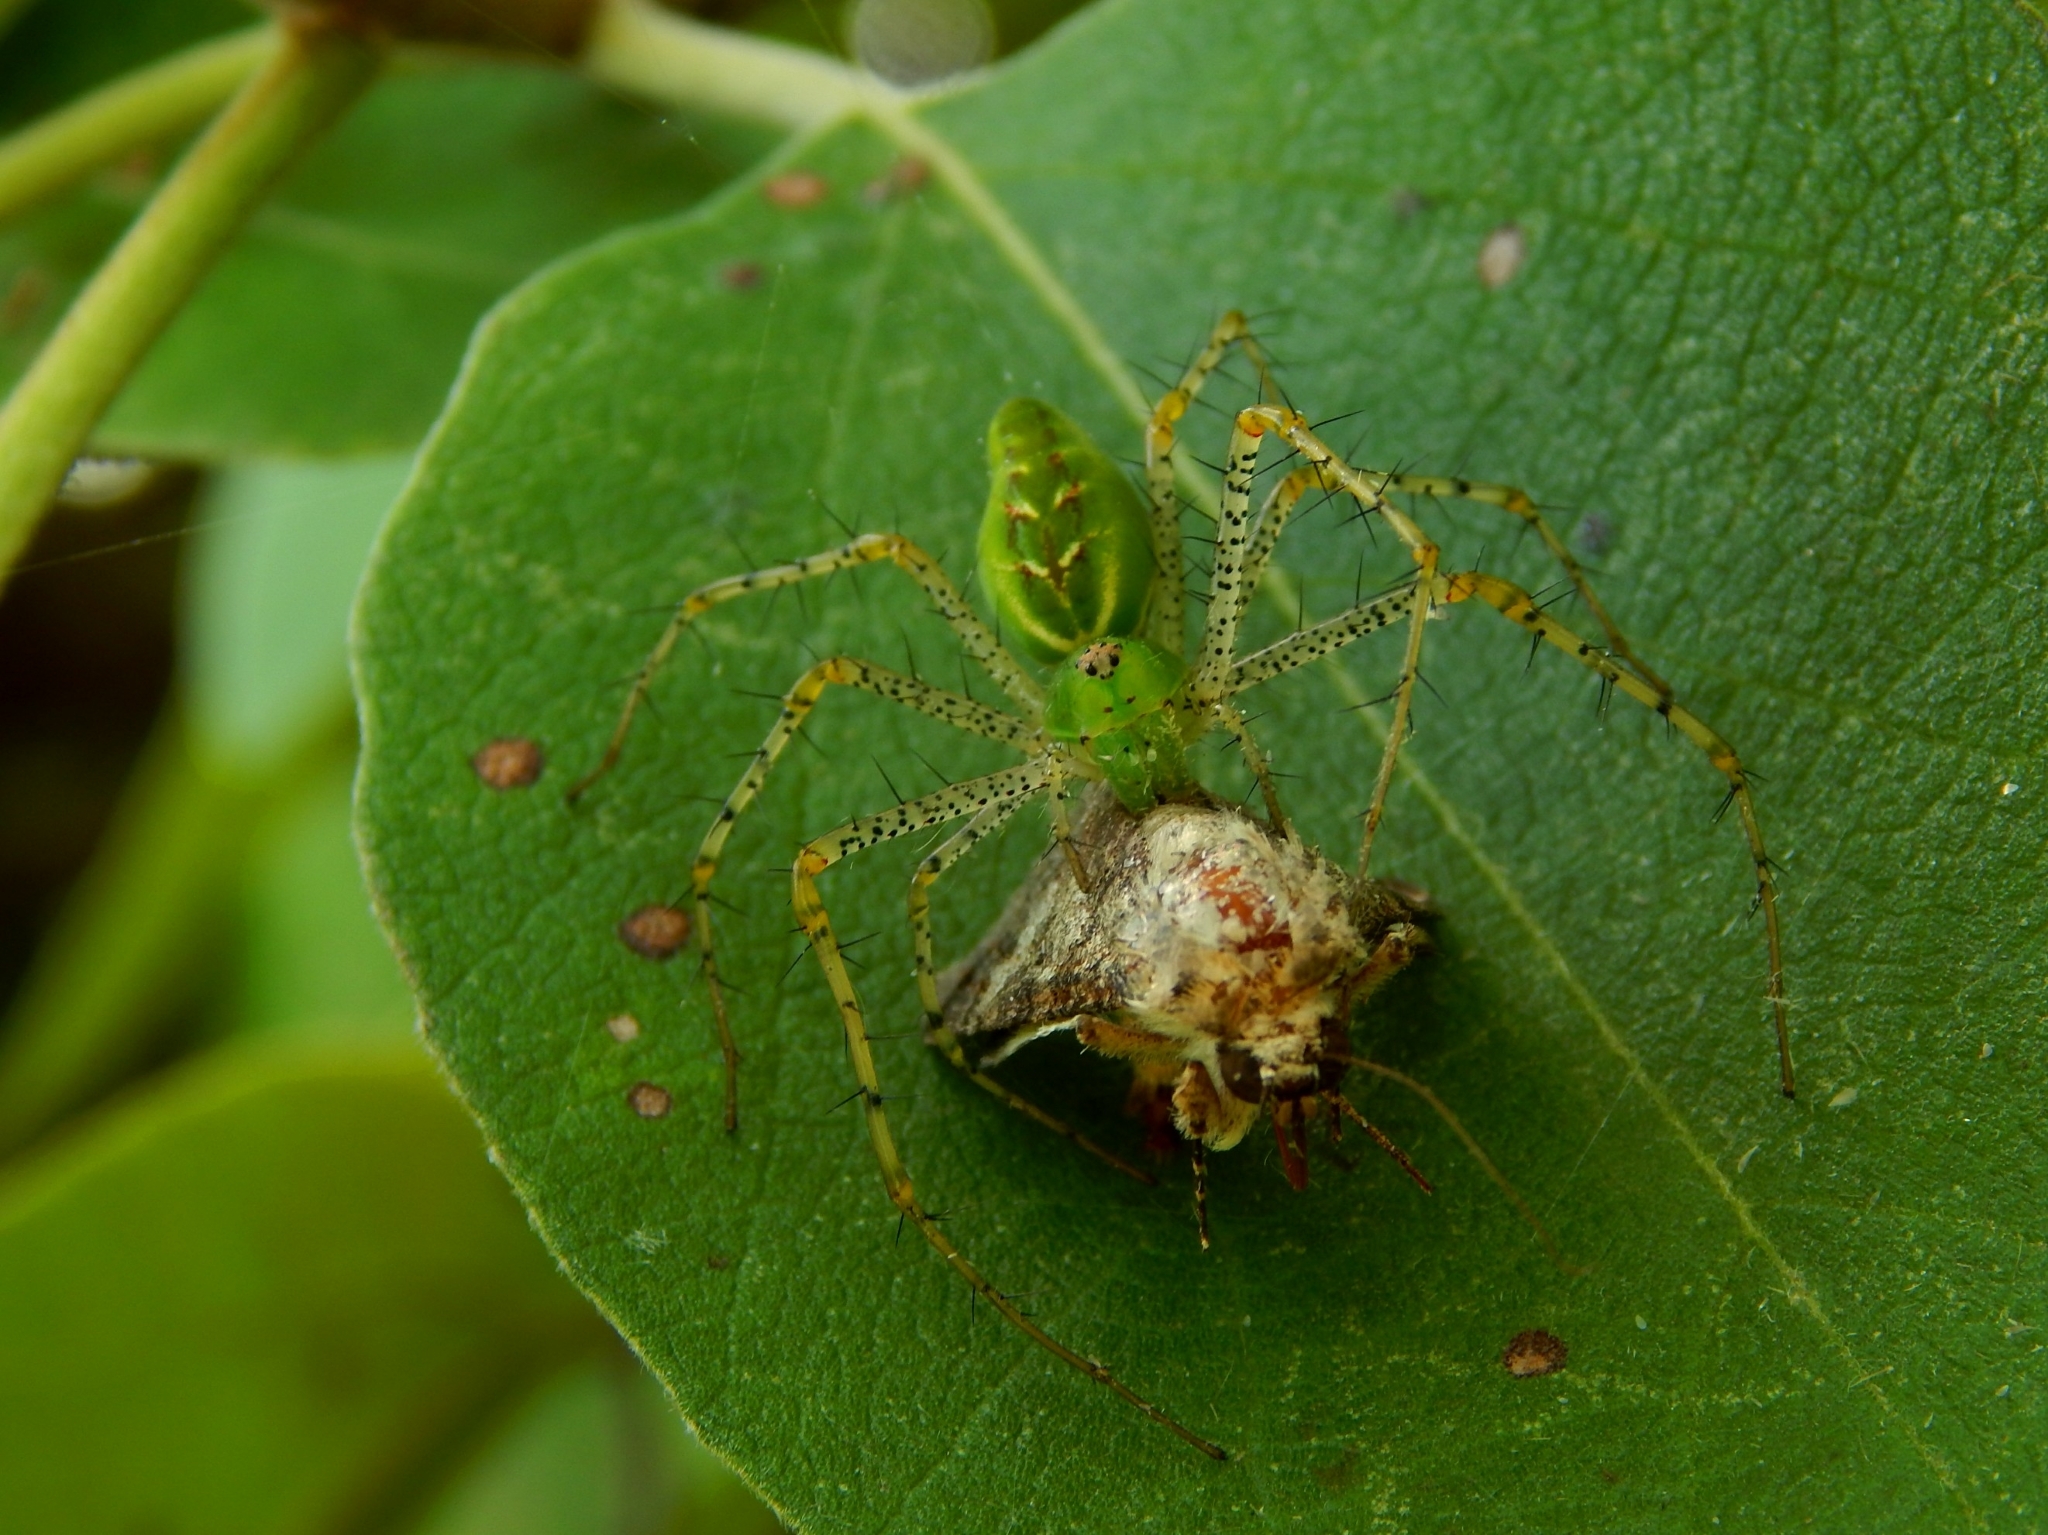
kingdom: Animalia
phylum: Arthropoda
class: Arachnida
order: Araneae
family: Oxyopidae
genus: Peucetia
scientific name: Peucetia viridans
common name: Lynx spiders
